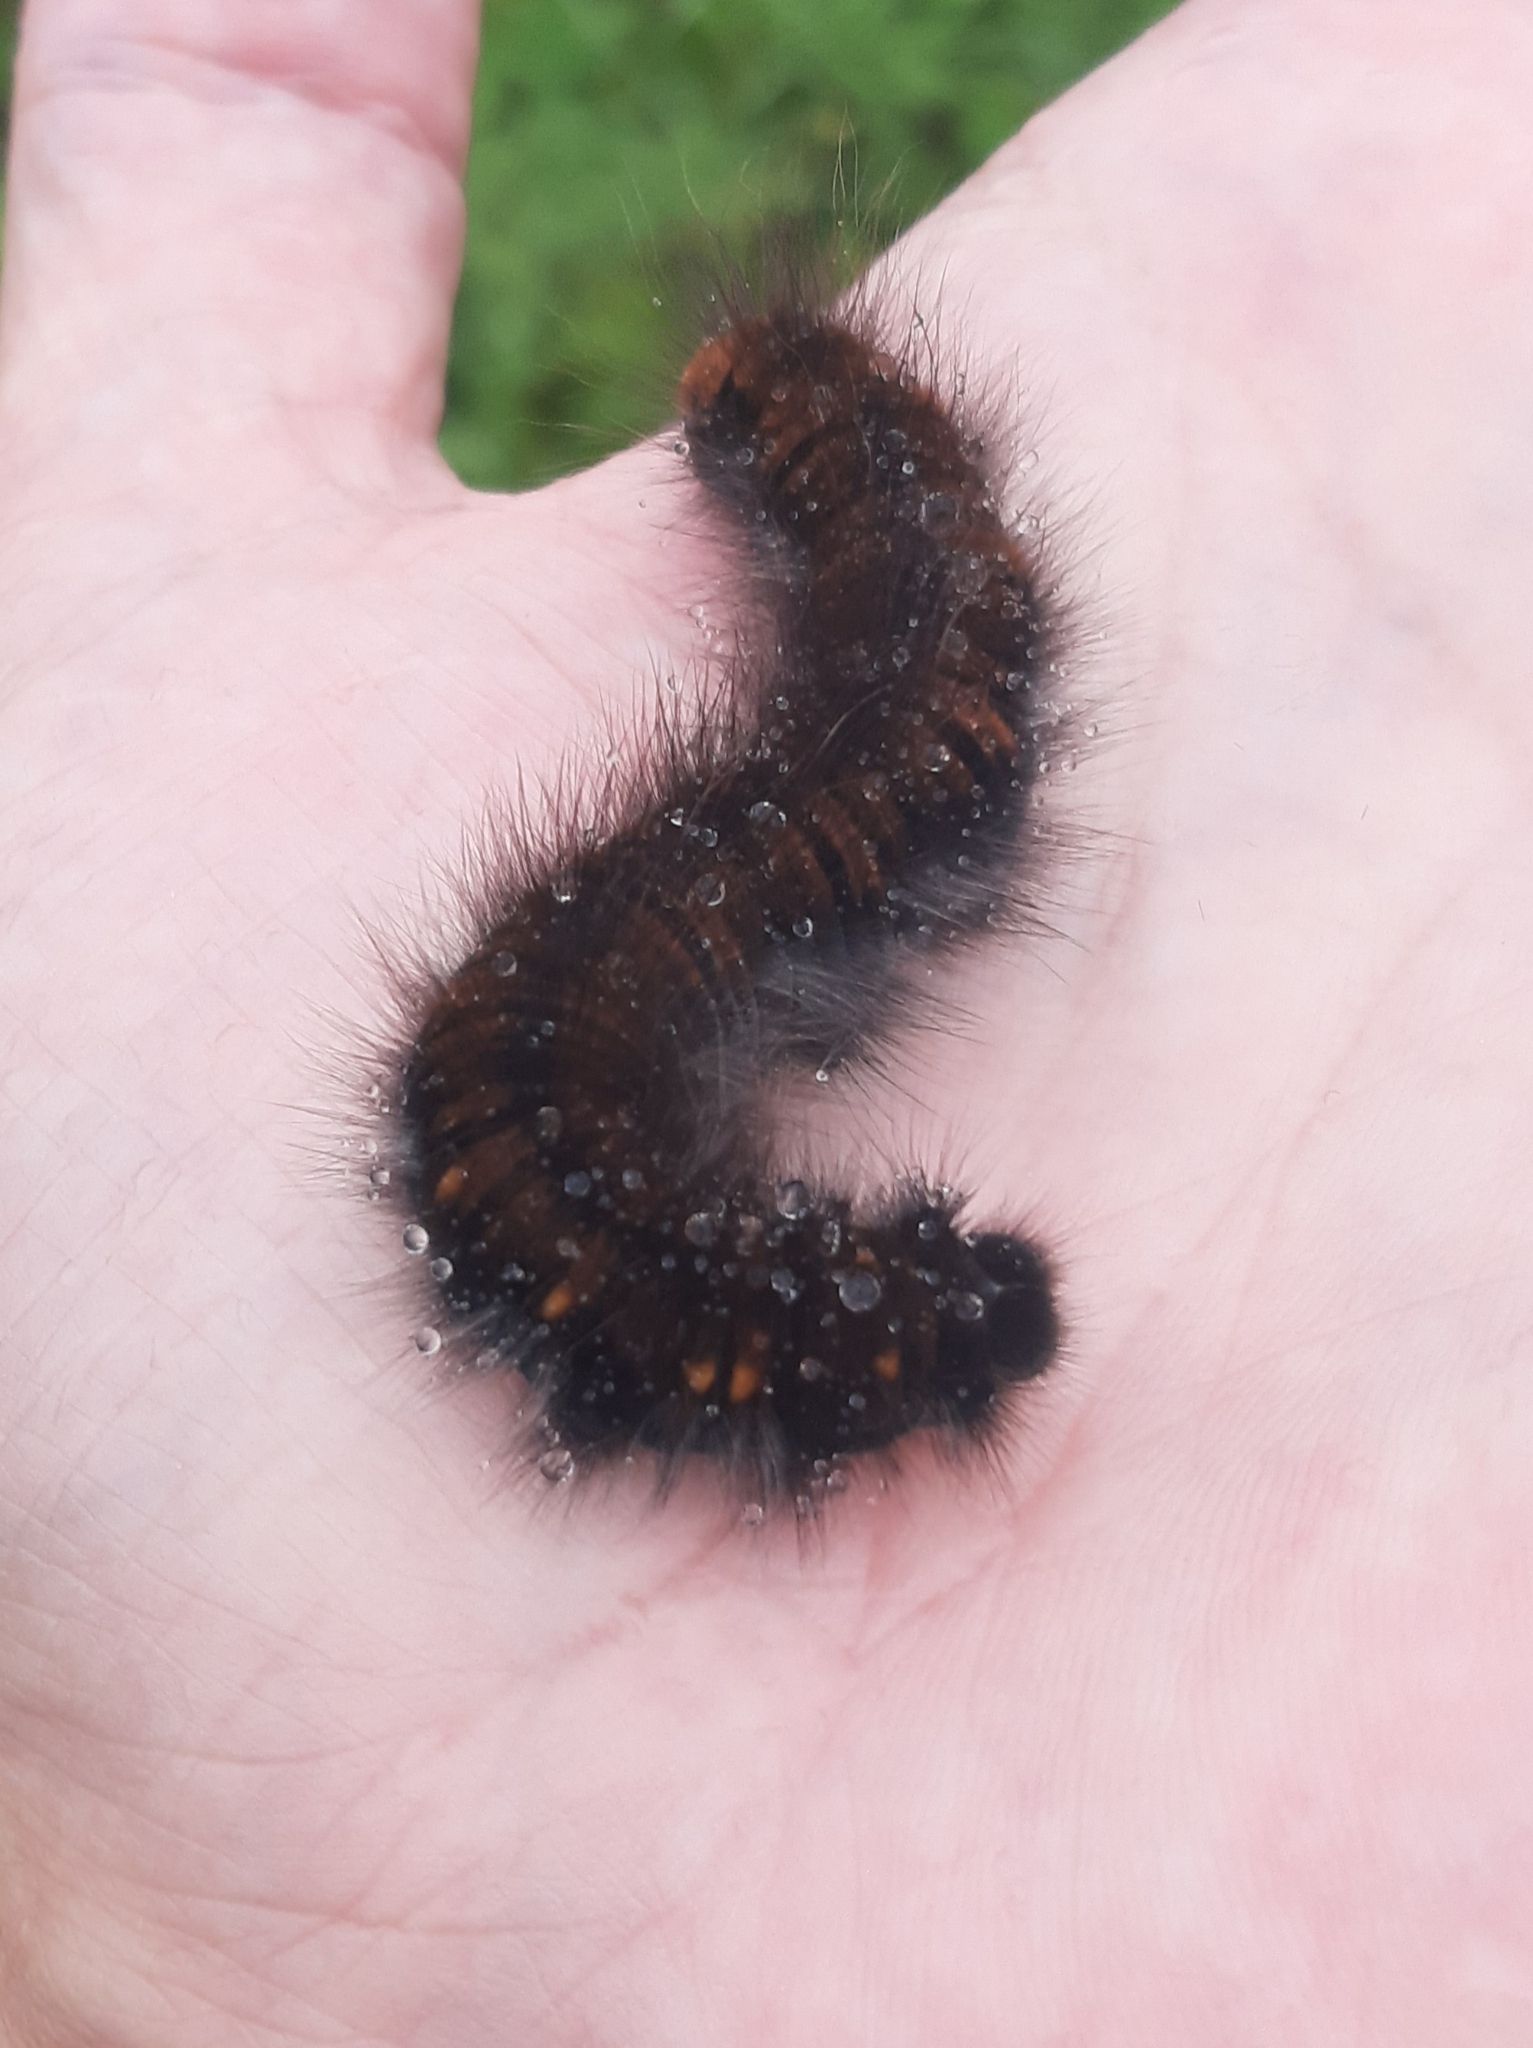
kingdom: Animalia
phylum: Arthropoda
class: Insecta
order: Lepidoptera
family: Lasiocampidae
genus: Macrothylacia
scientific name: Macrothylacia rubi
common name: Fox moth
